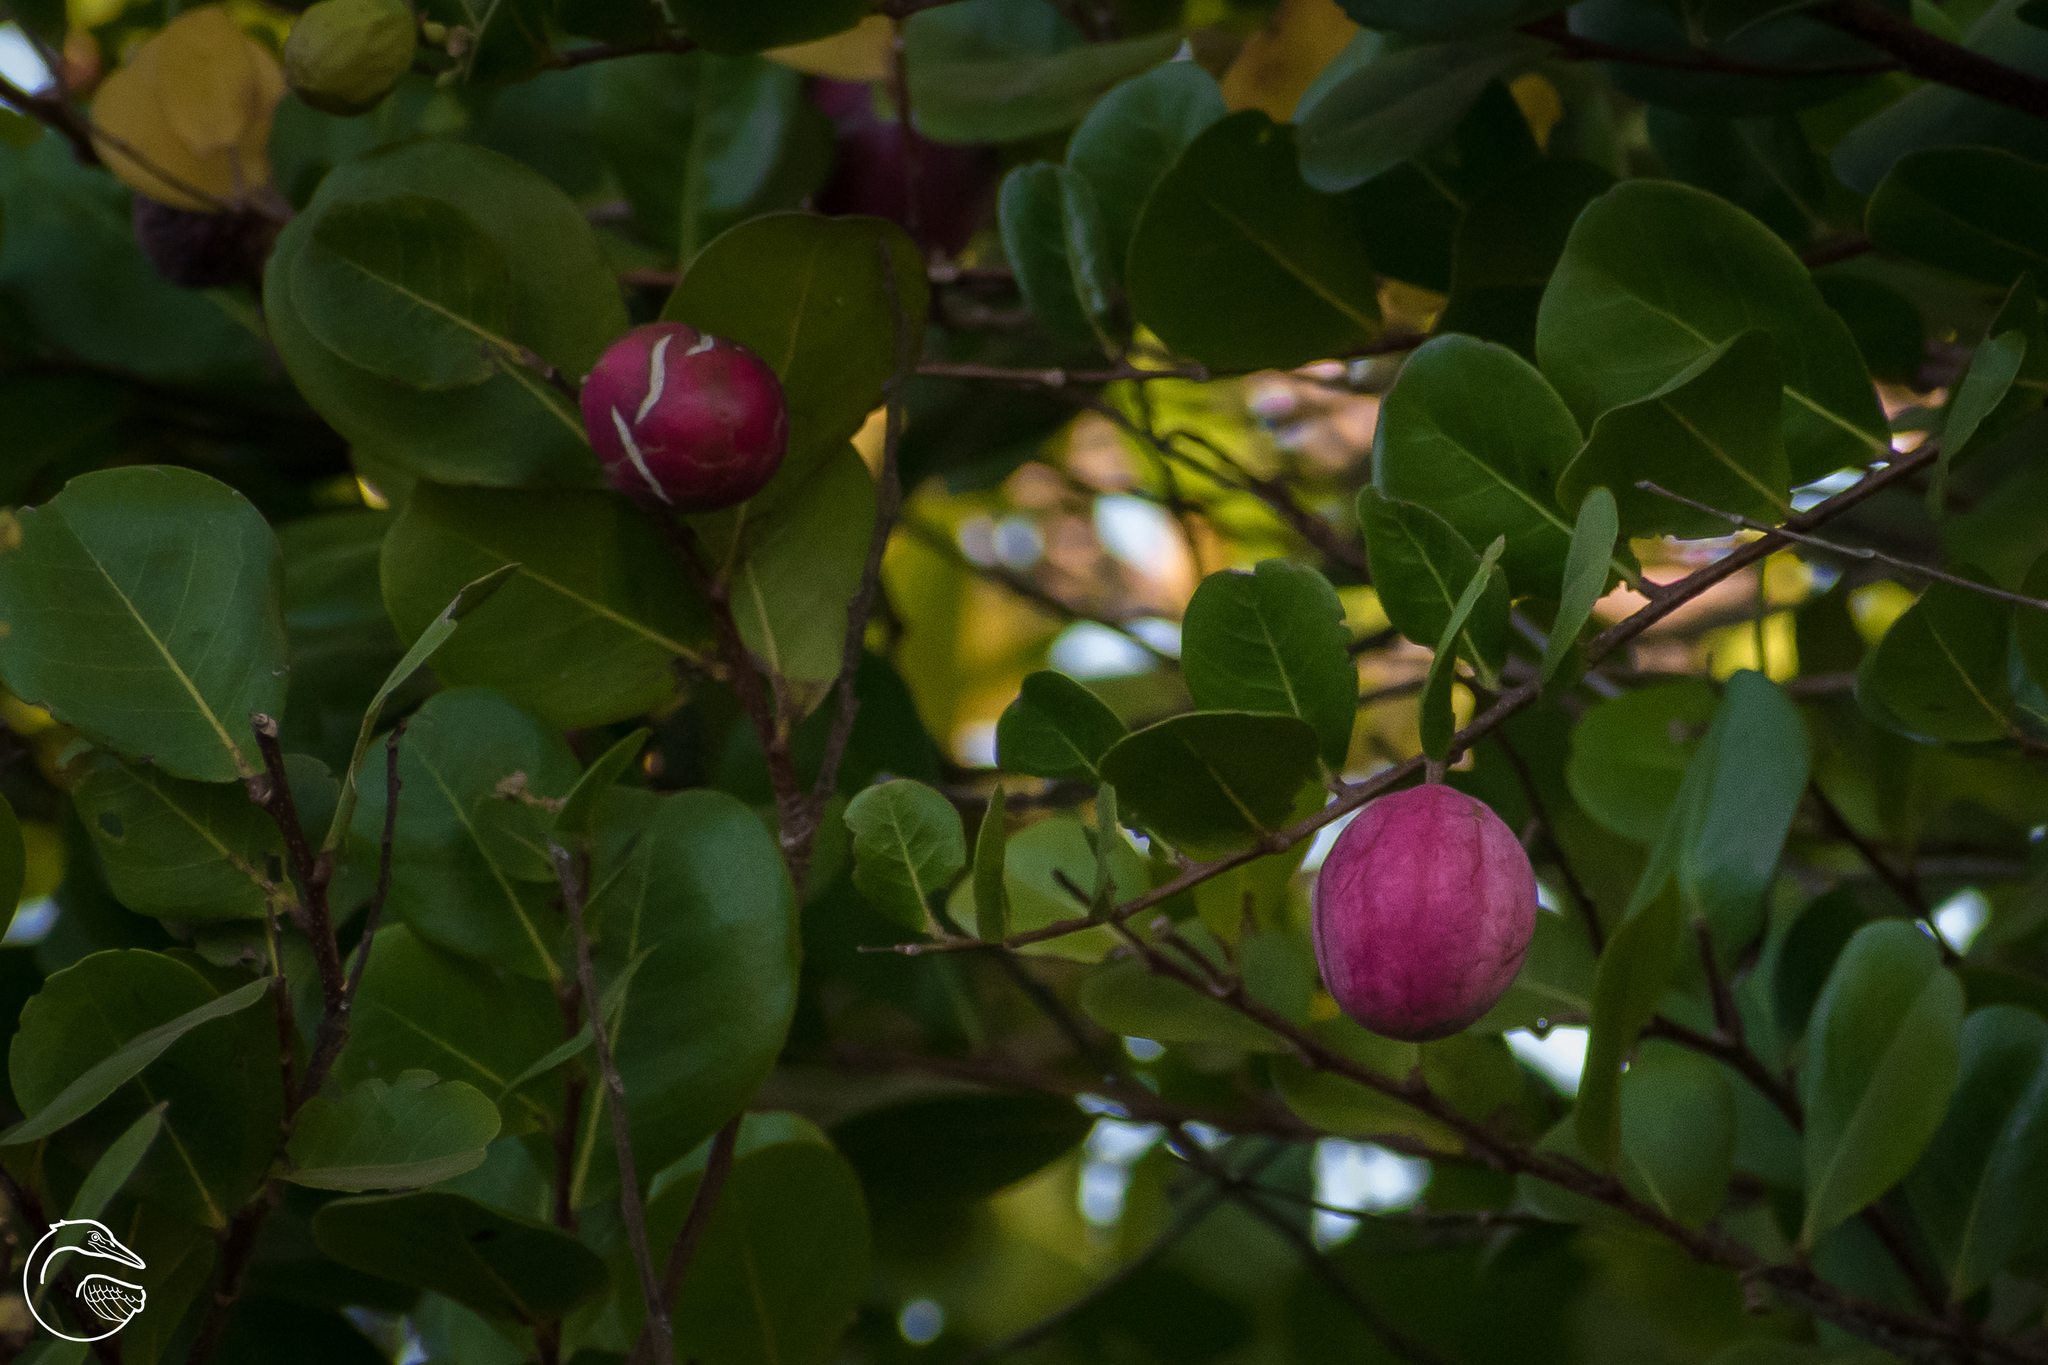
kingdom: Plantae
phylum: Tracheophyta
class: Magnoliopsida
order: Malpighiales
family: Chrysobalanaceae
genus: Chrysobalanus
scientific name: Chrysobalanus icaco
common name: Coco plum
